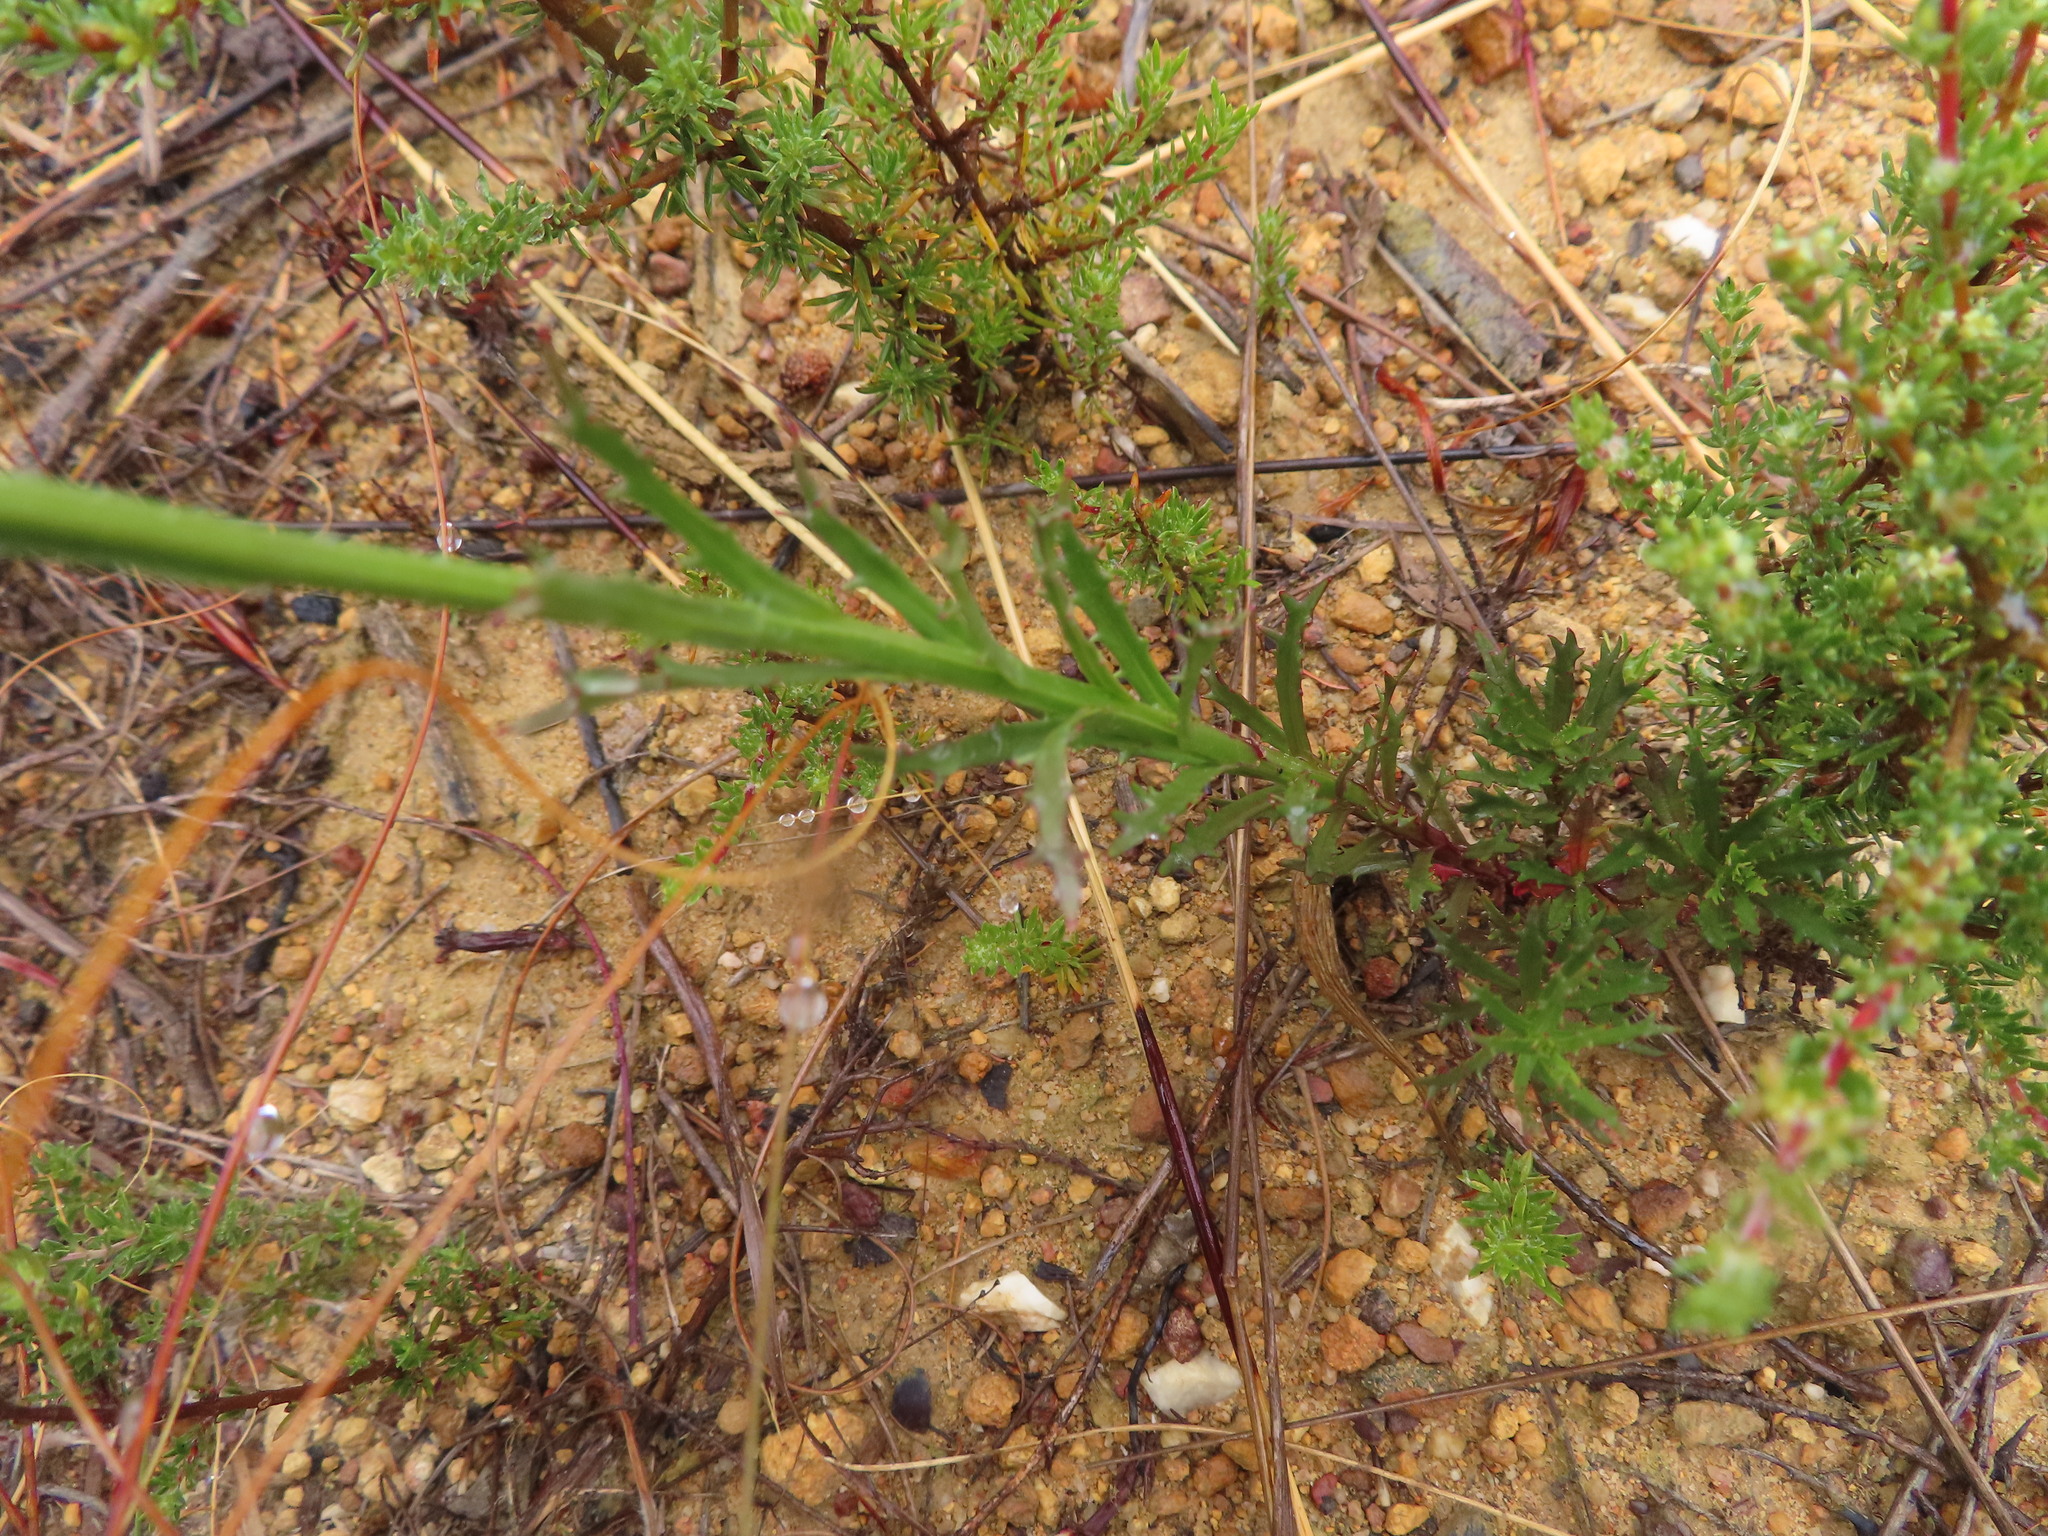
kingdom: Plantae
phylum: Tracheophyta
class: Magnoliopsida
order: Asterales
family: Campanulaceae
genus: Lobelia
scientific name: Lobelia comosa
